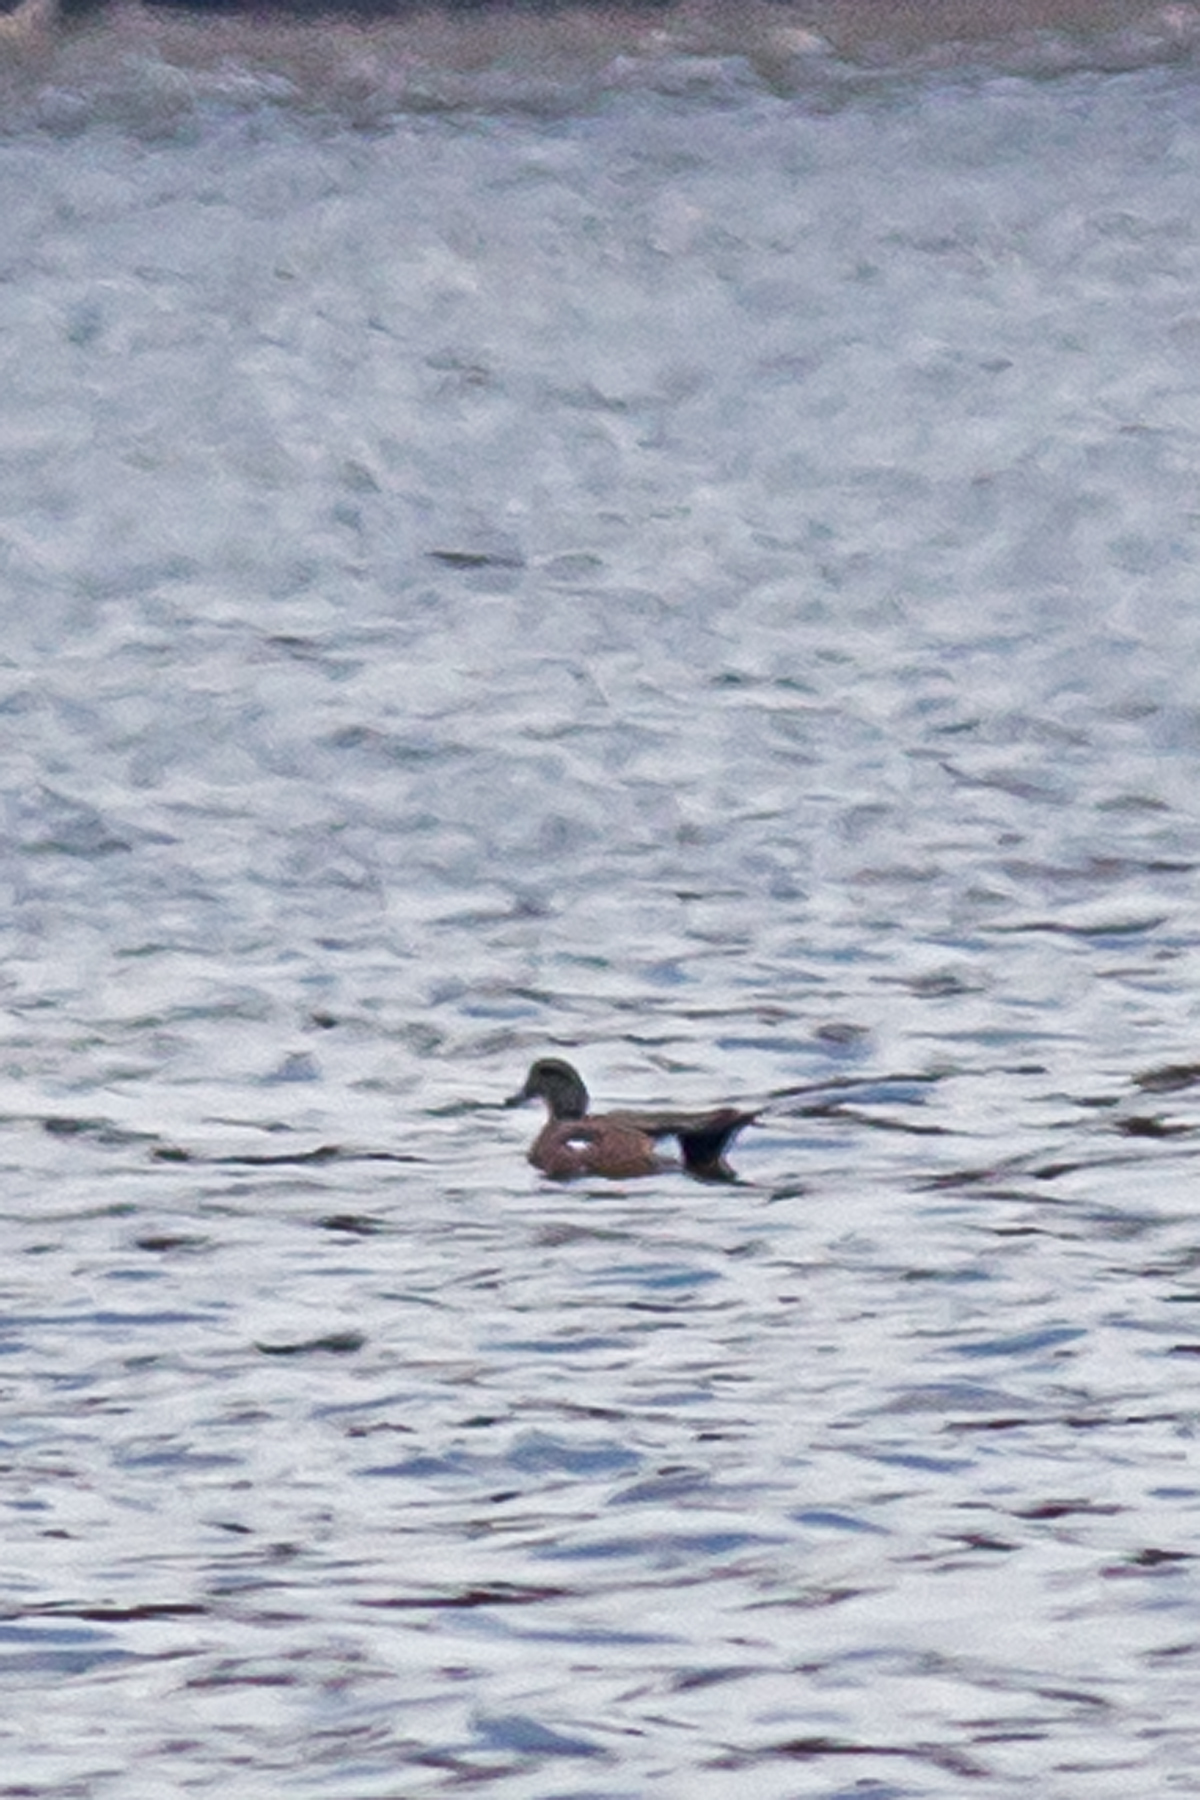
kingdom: Animalia
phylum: Chordata
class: Aves
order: Anseriformes
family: Anatidae
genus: Mareca
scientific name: Mareca americana
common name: American wigeon
